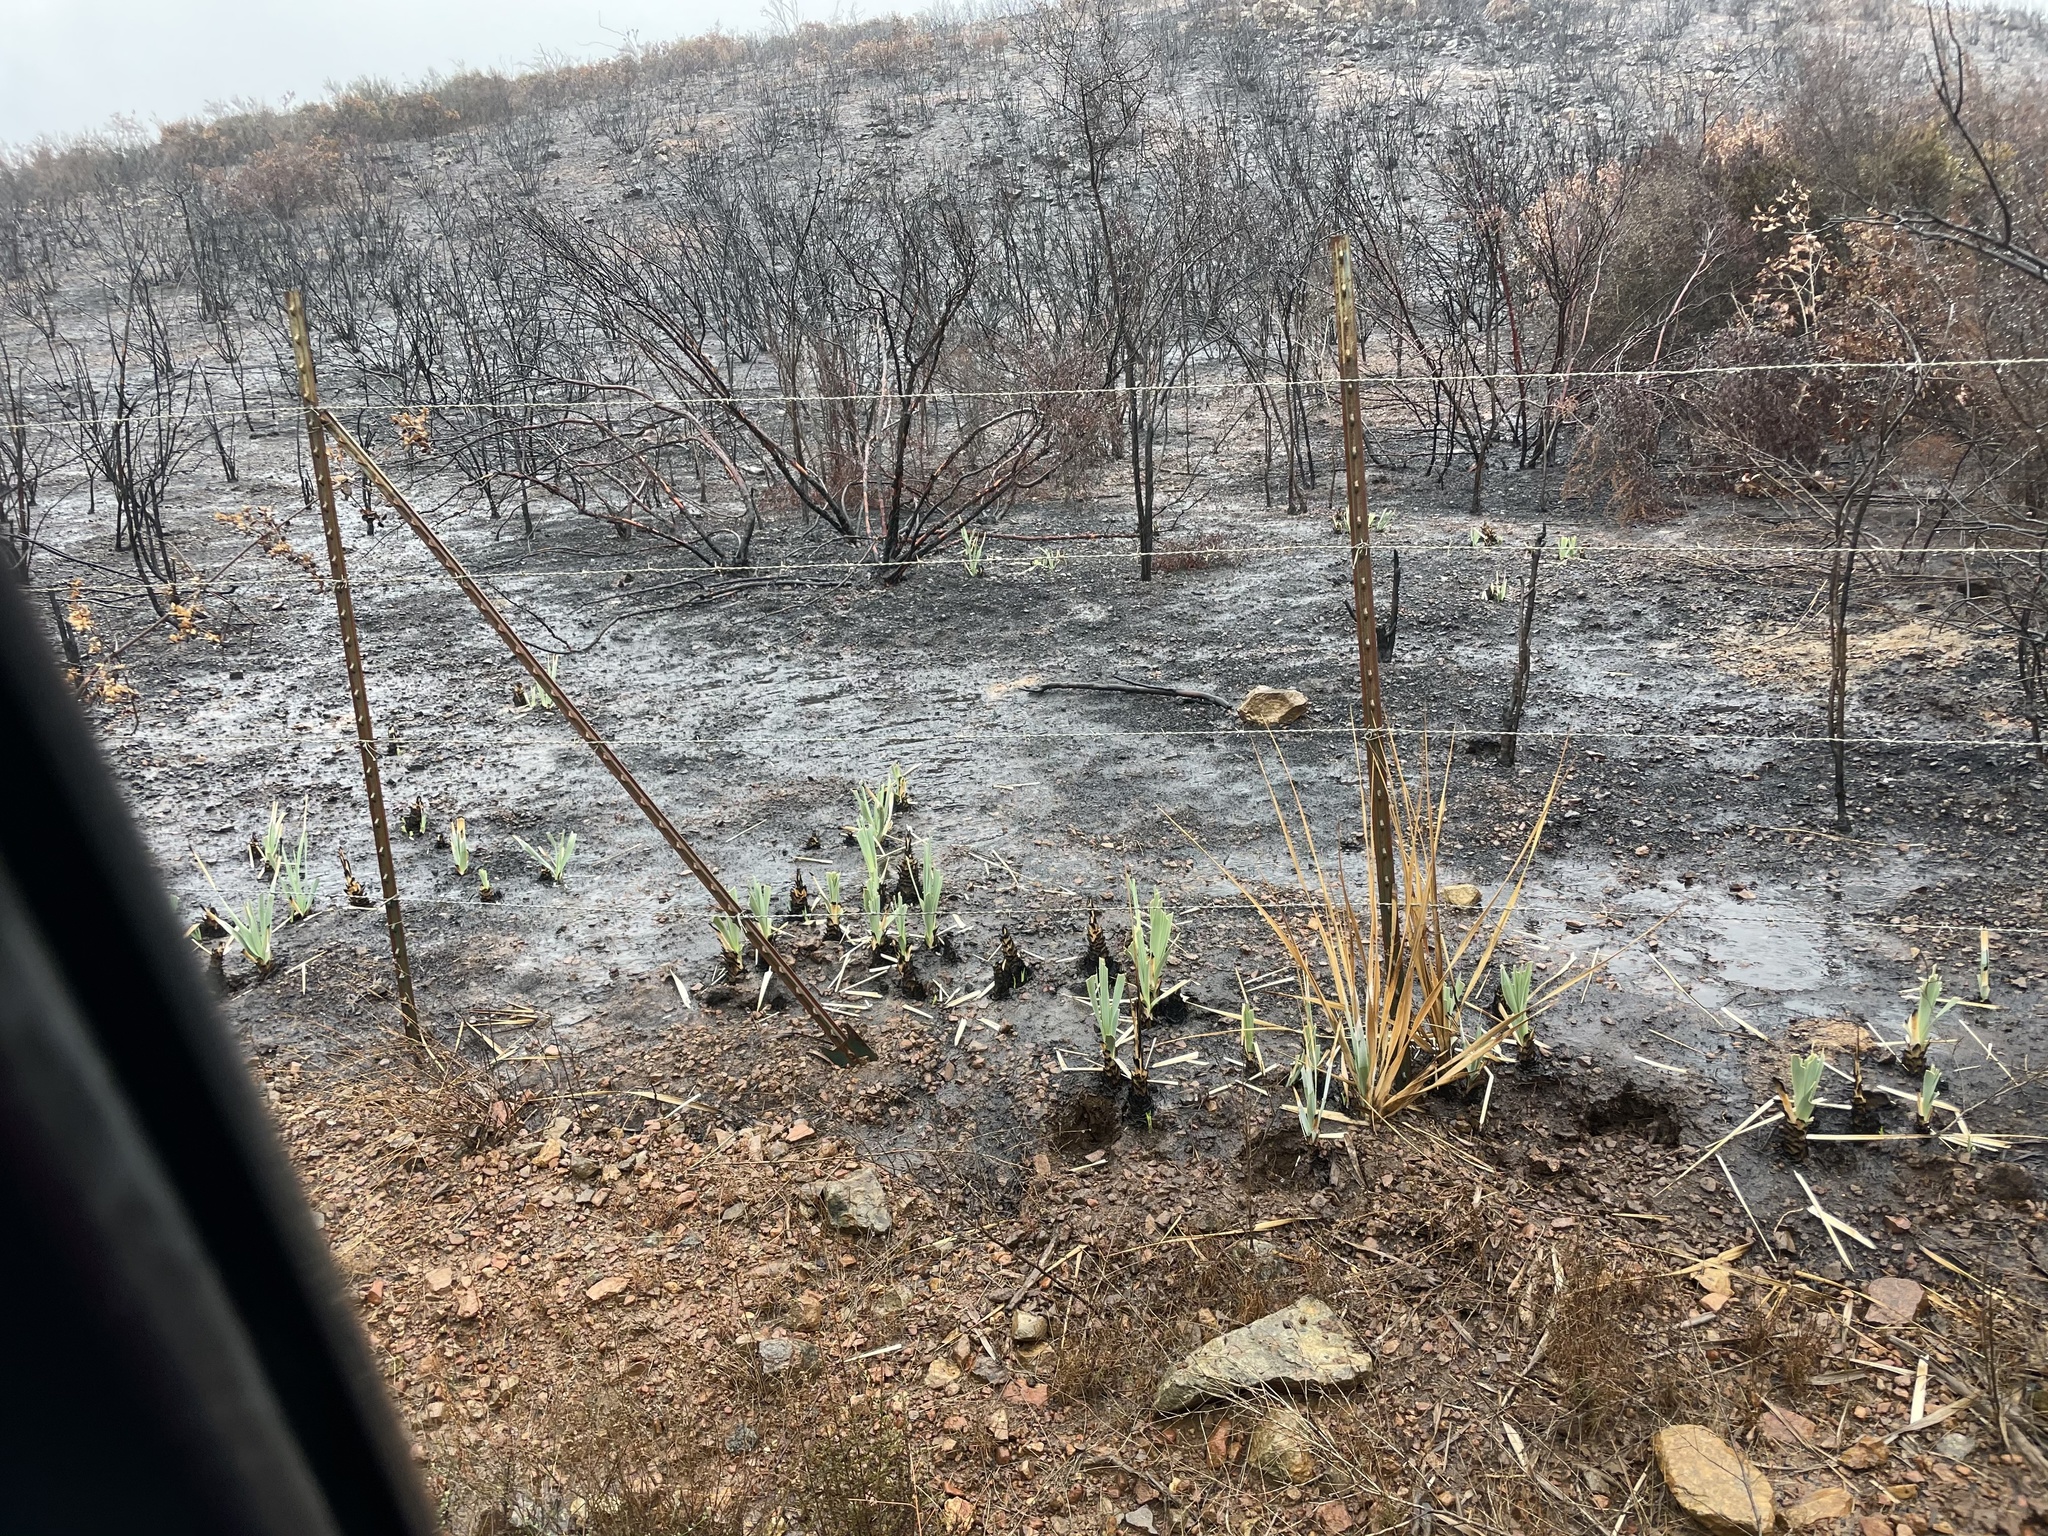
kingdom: Plantae
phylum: Tracheophyta
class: Liliopsida
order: Asparagales
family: Asparagaceae
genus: Nolina
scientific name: Nolina interrata
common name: Dehesa bear-grass
